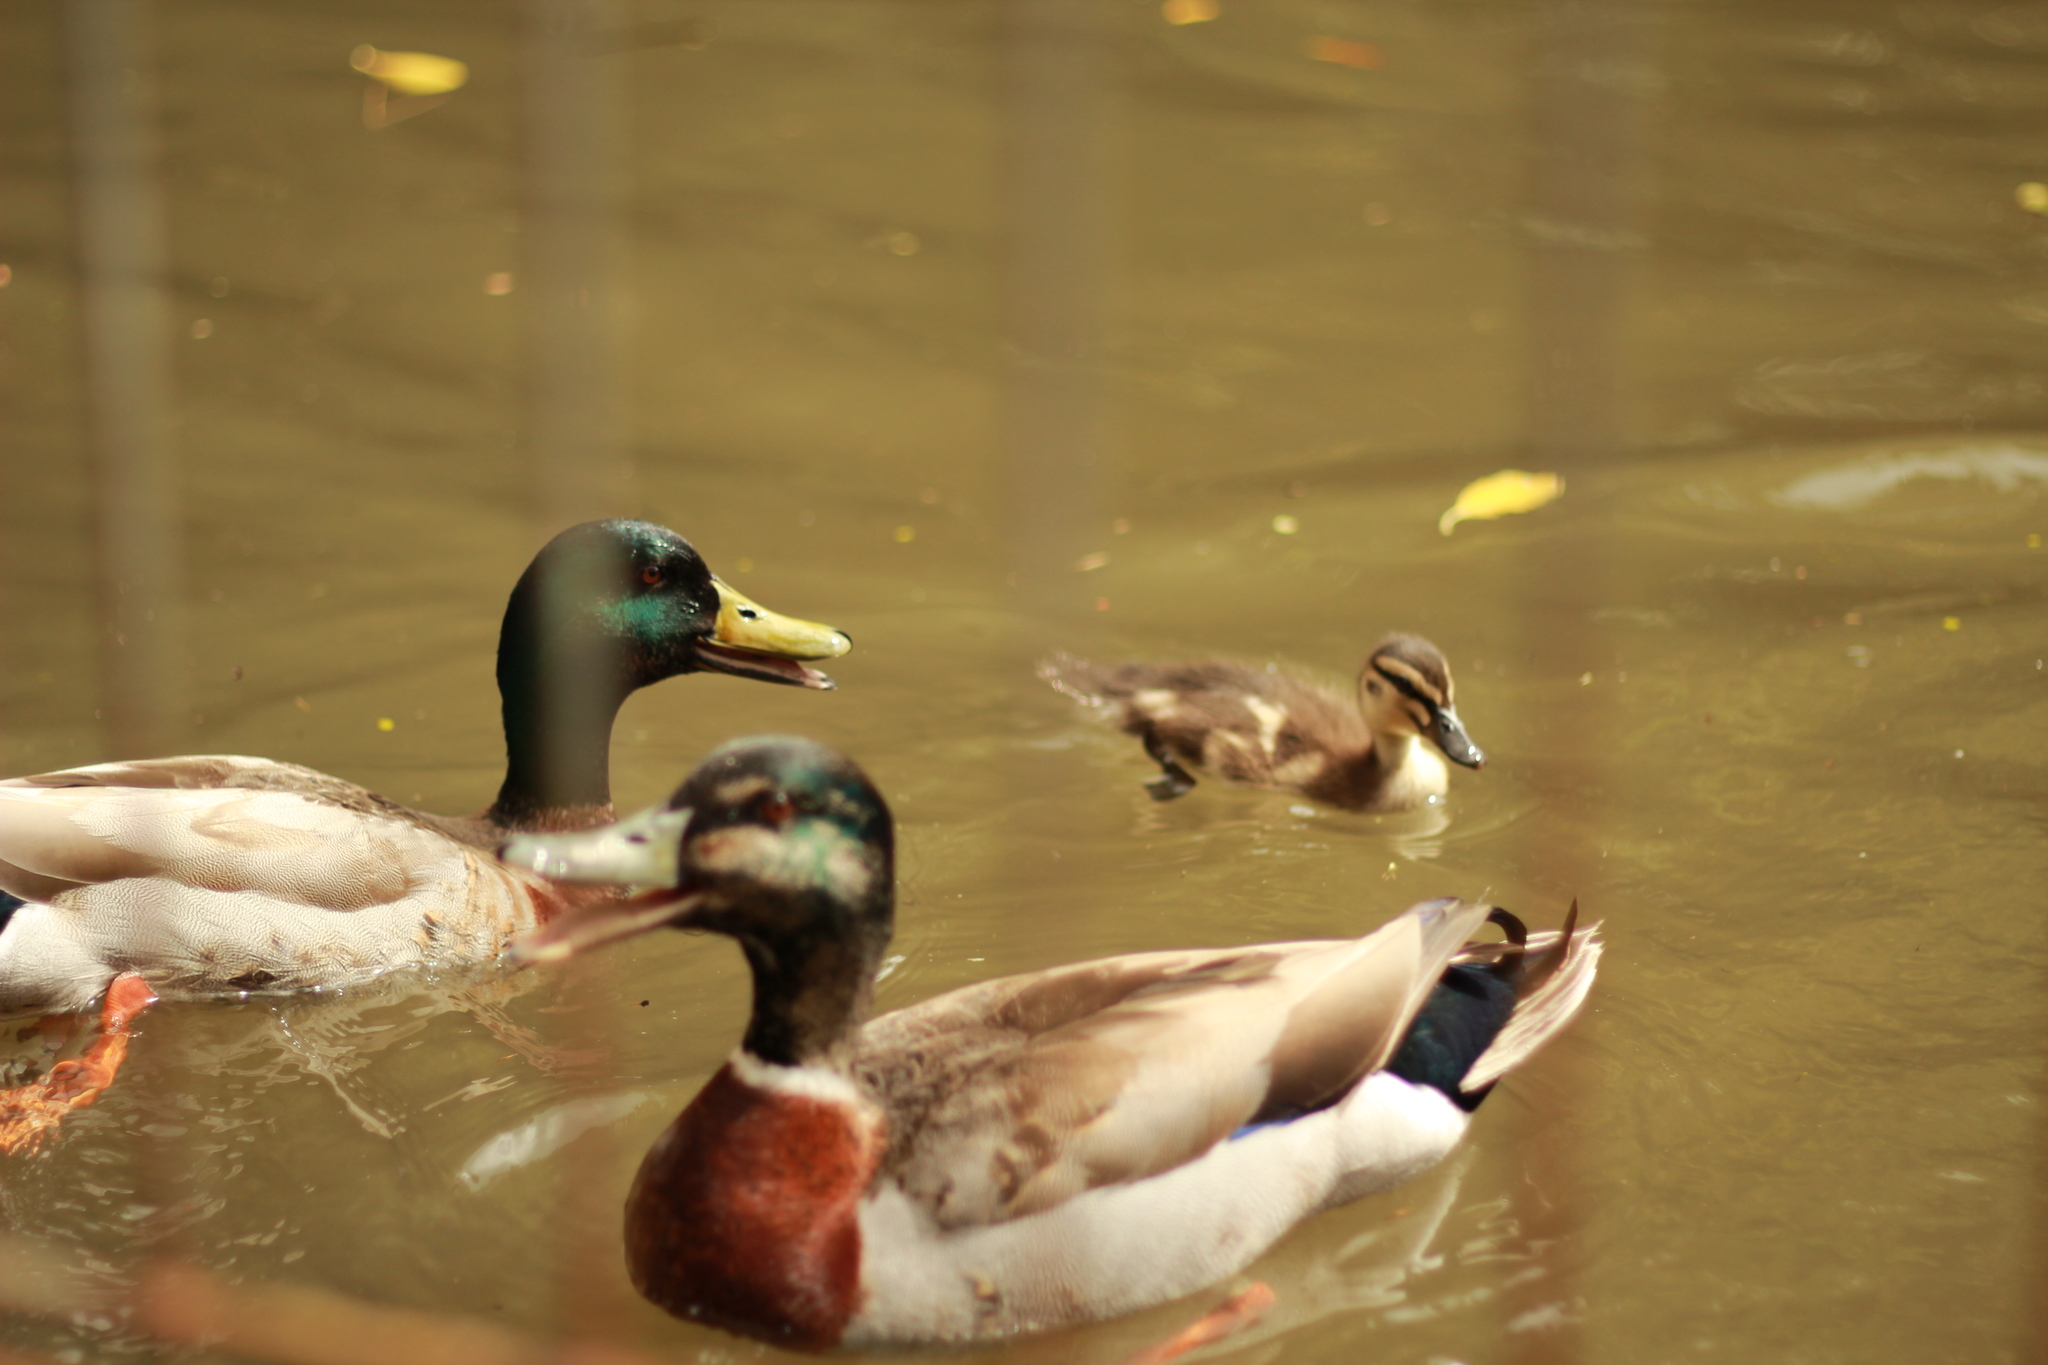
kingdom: Animalia
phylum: Chordata
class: Aves
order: Anseriformes
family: Anatidae
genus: Anas
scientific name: Anas platyrhynchos
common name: Mallard
